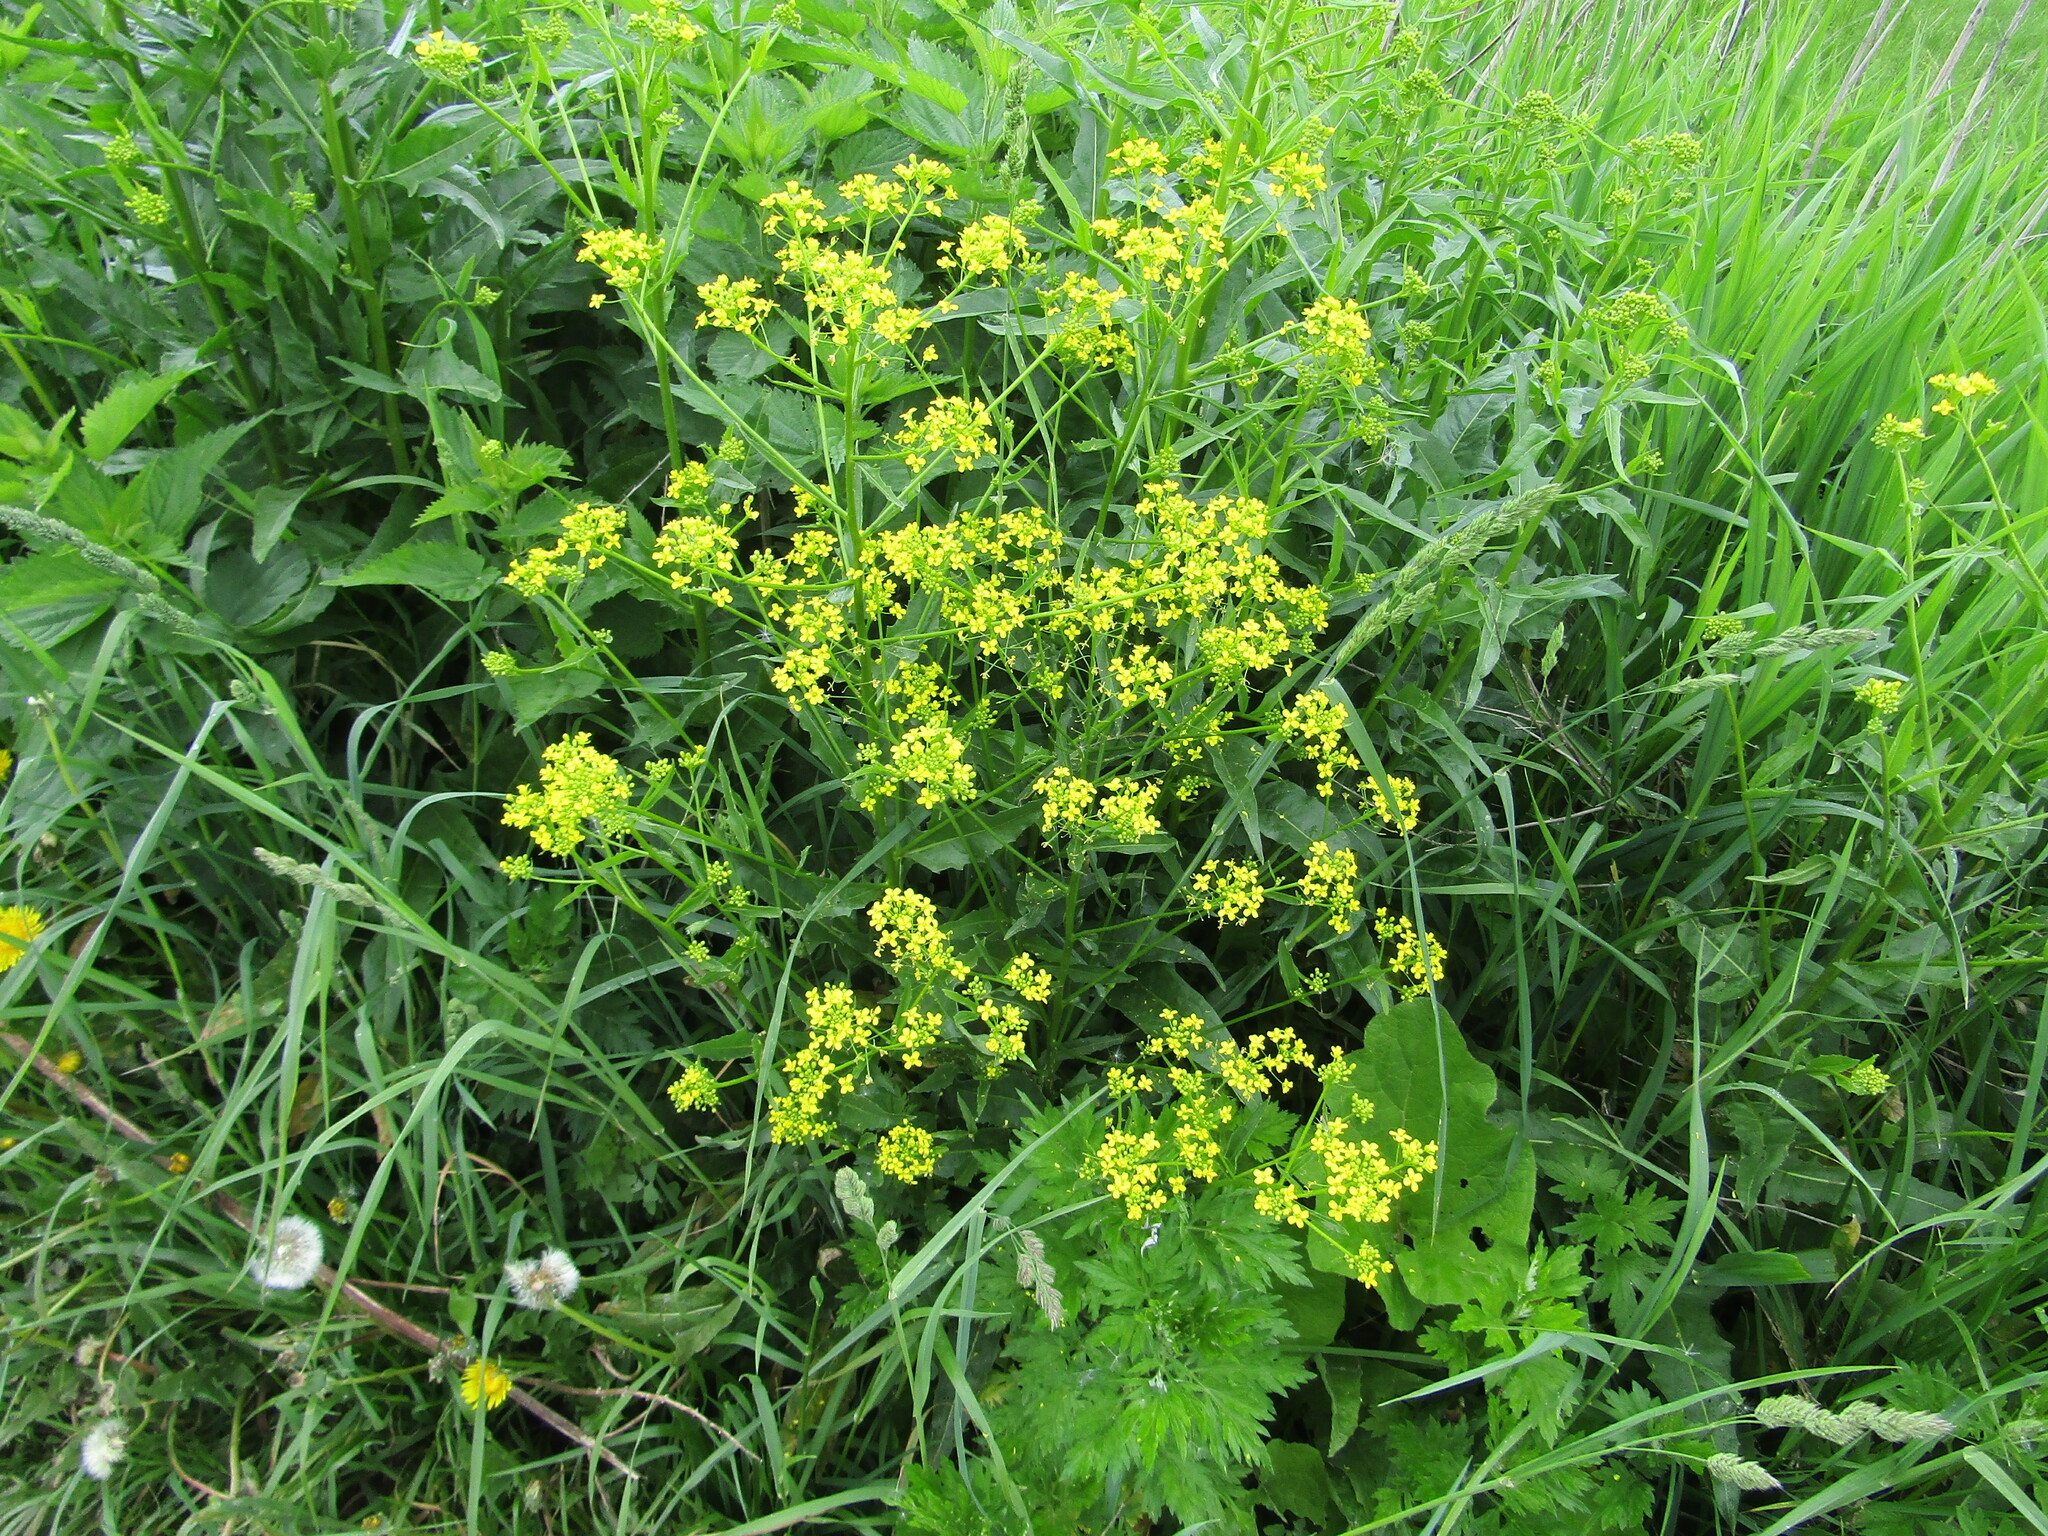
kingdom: Plantae
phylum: Tracheophyta
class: Magnoliopsida
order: Brassicales
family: Brassicaceae
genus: Bunias
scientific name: Bunias orientalis
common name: Warty-cabbage
